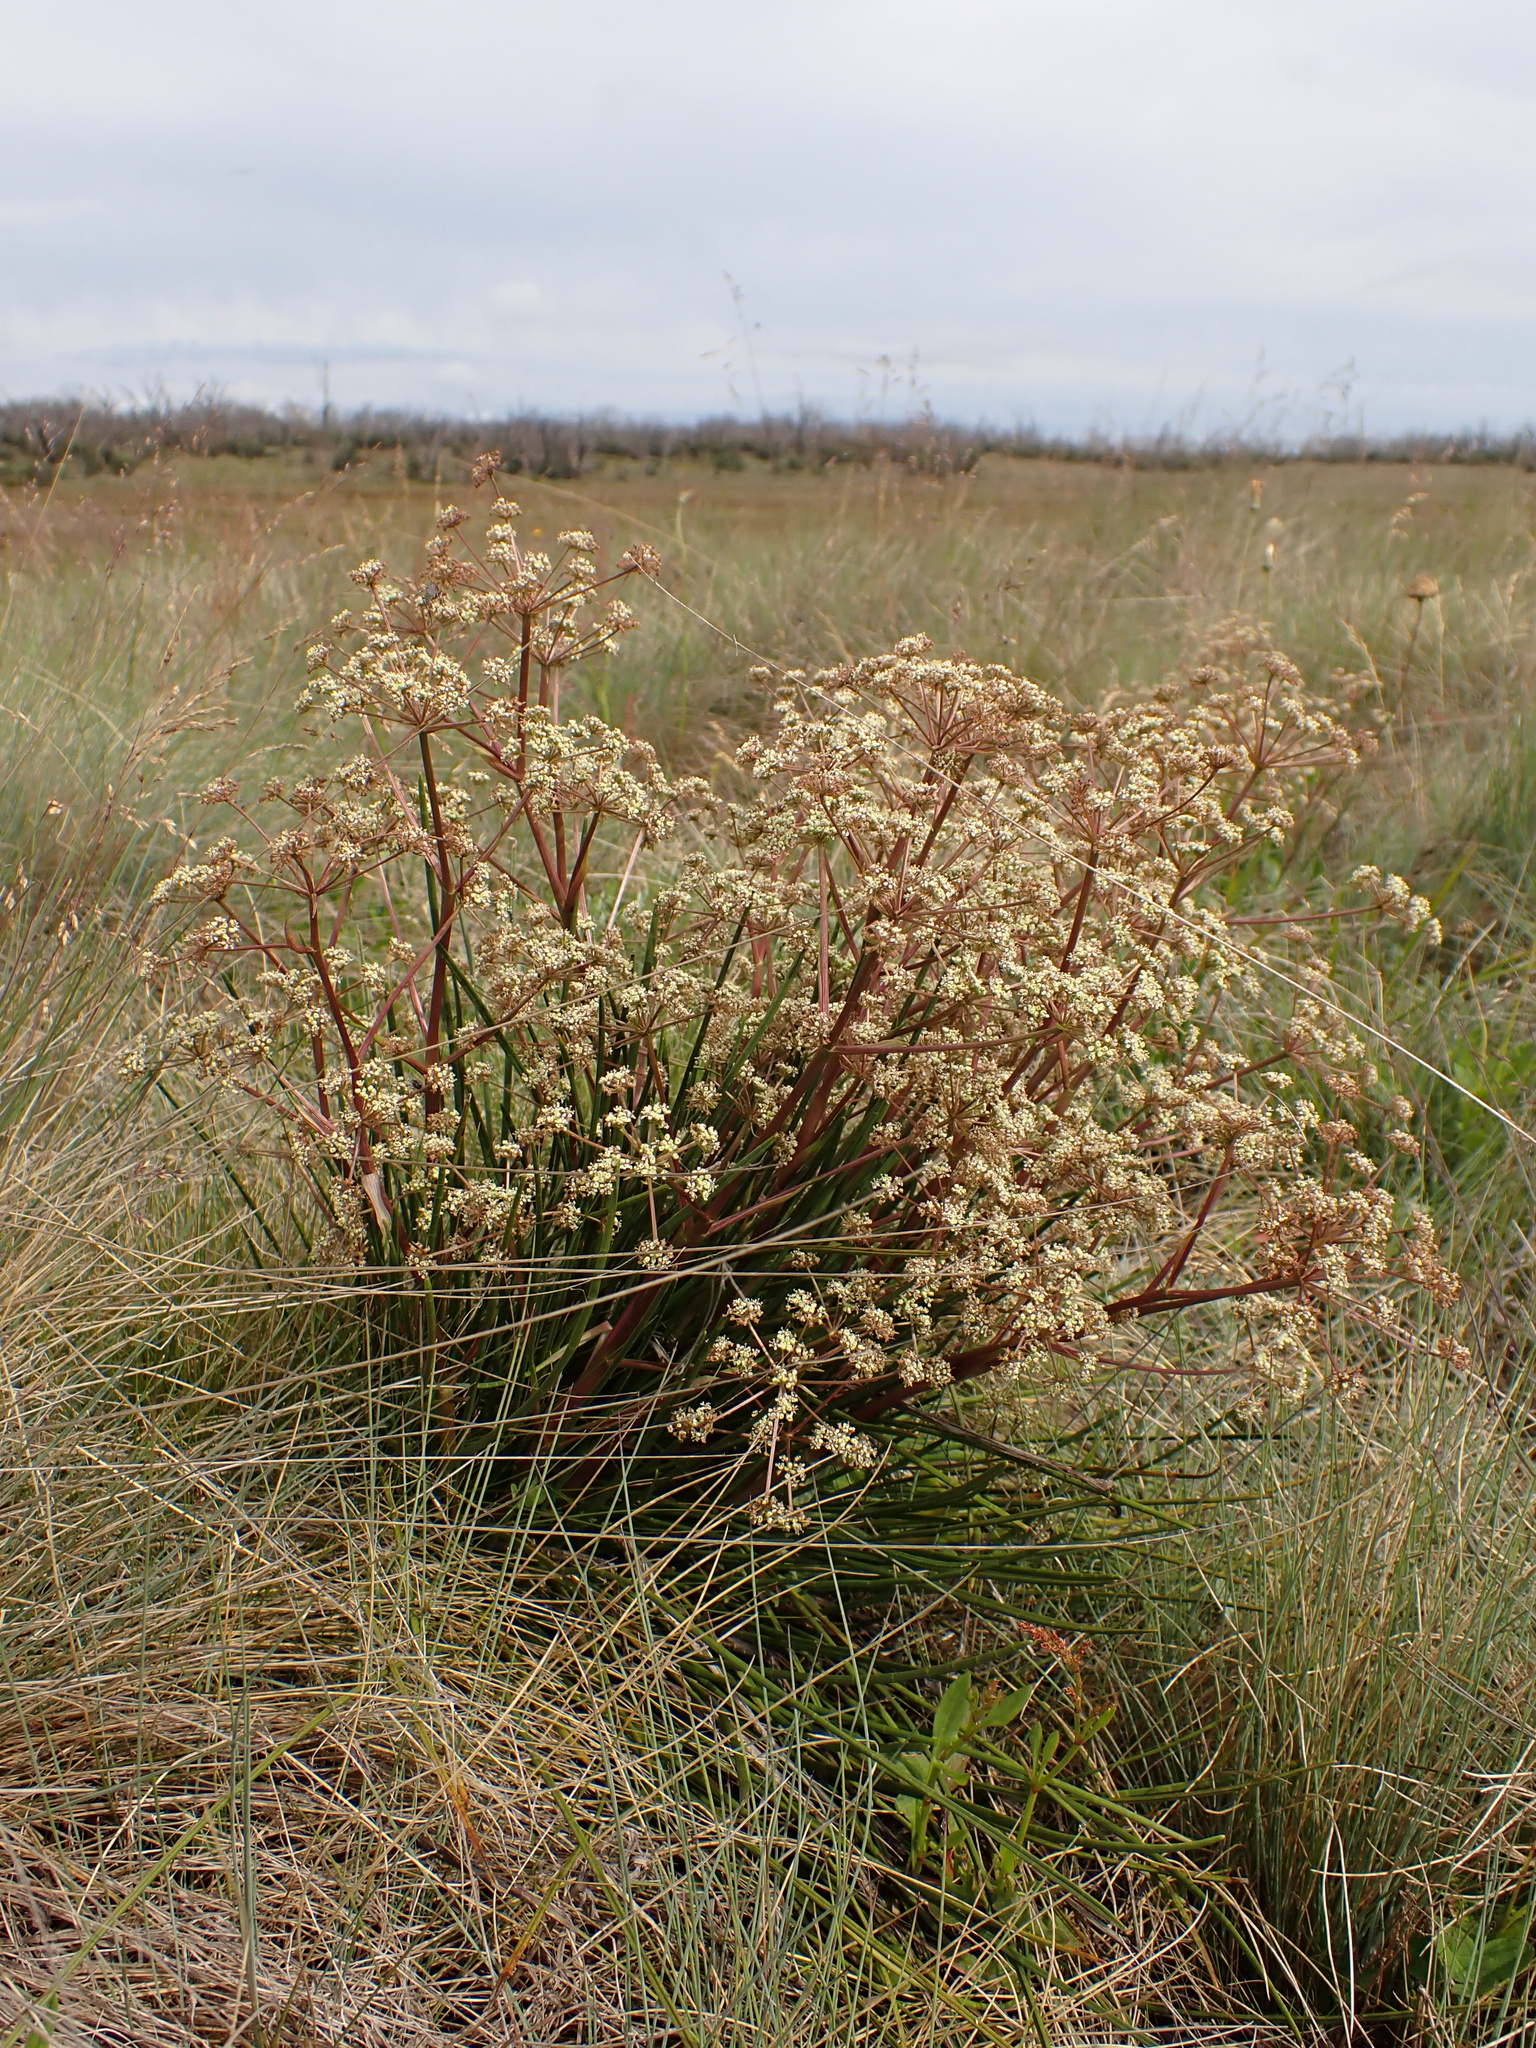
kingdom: Plantae
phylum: Tracheophyta
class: Magnoliopsida
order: Apiales
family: Apiaceae
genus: Aciphylla
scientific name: Aciphylla simplicifolia
